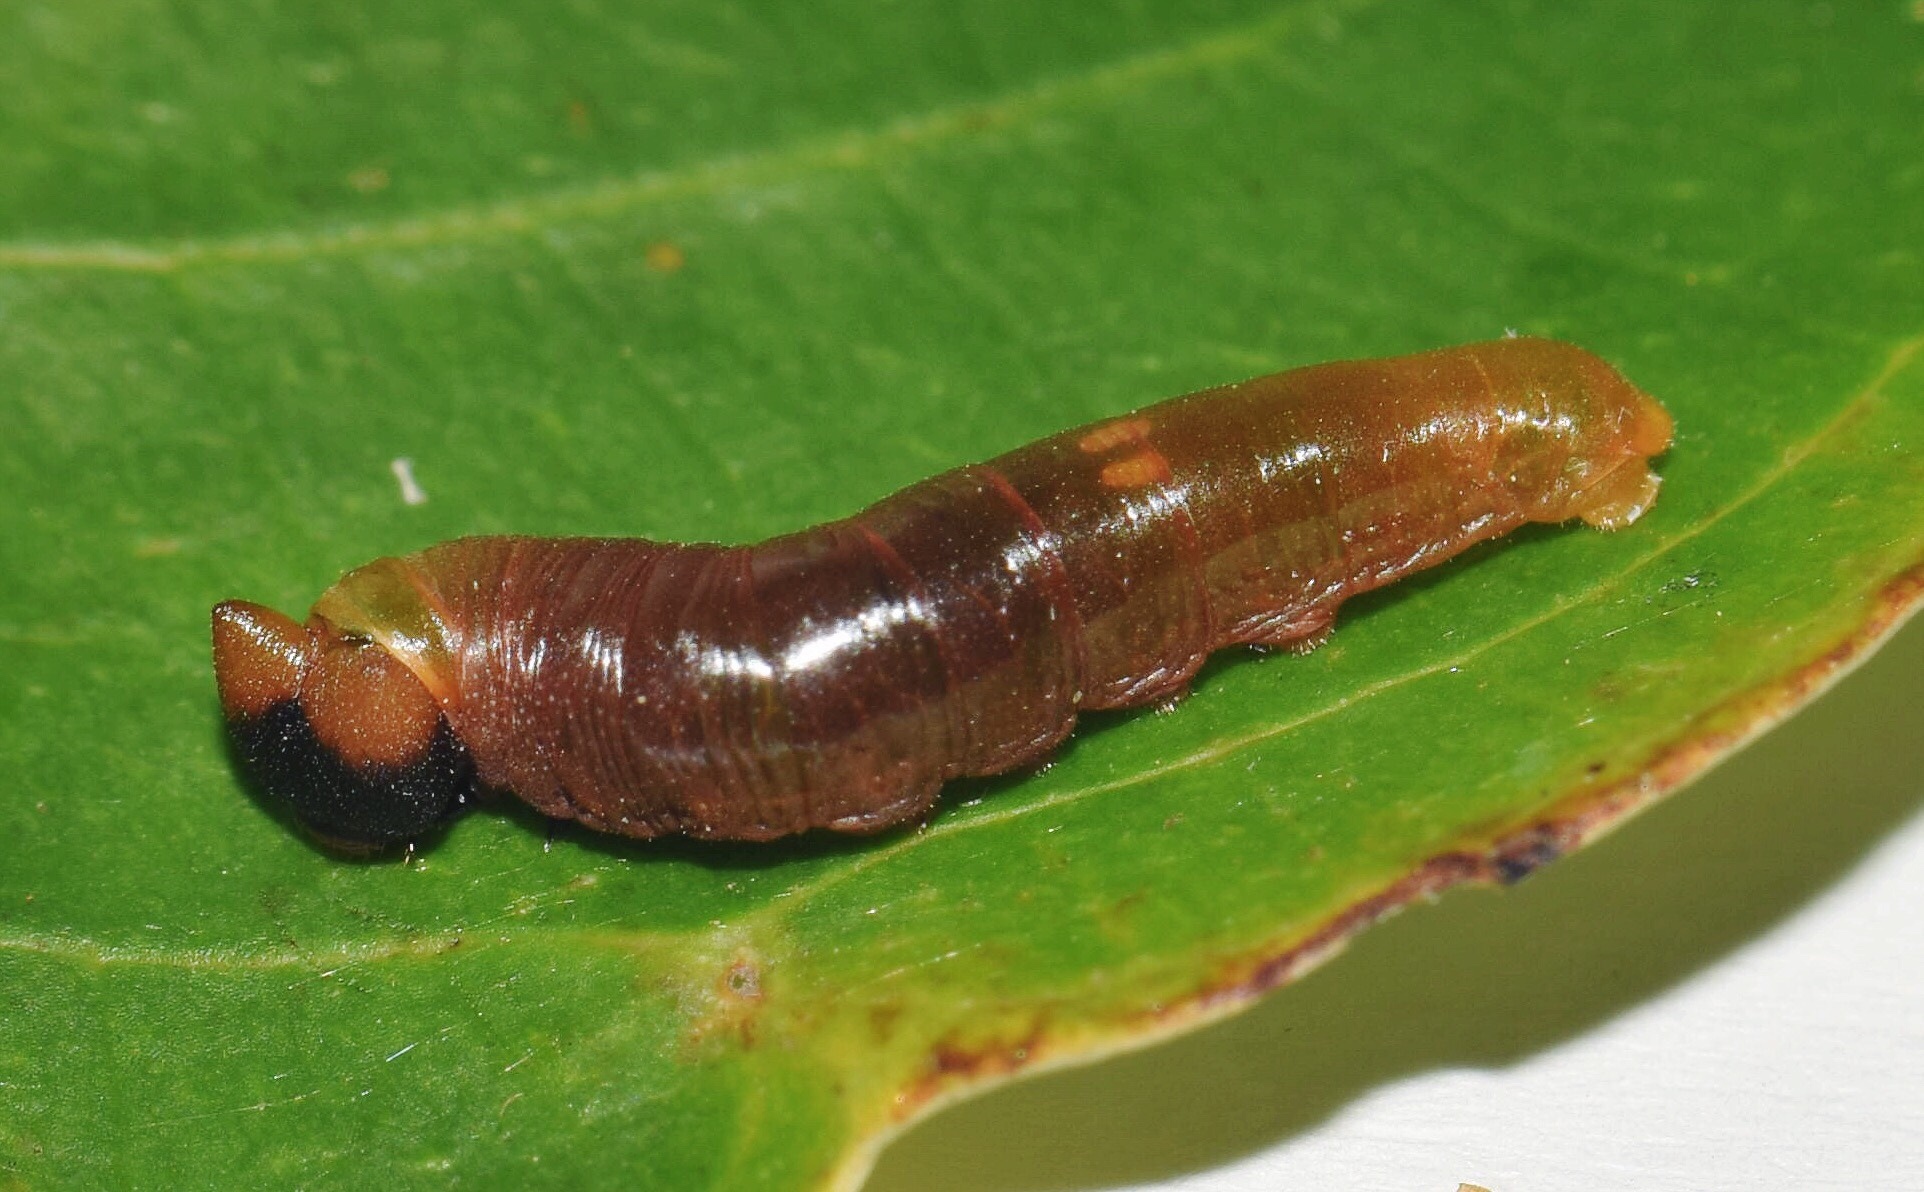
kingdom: Animalia
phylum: Arthropoda
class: Insecta
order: Lepidoptera
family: Hesperiidae
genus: Tagiades
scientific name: Tagiades flesus
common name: Clouded flat
